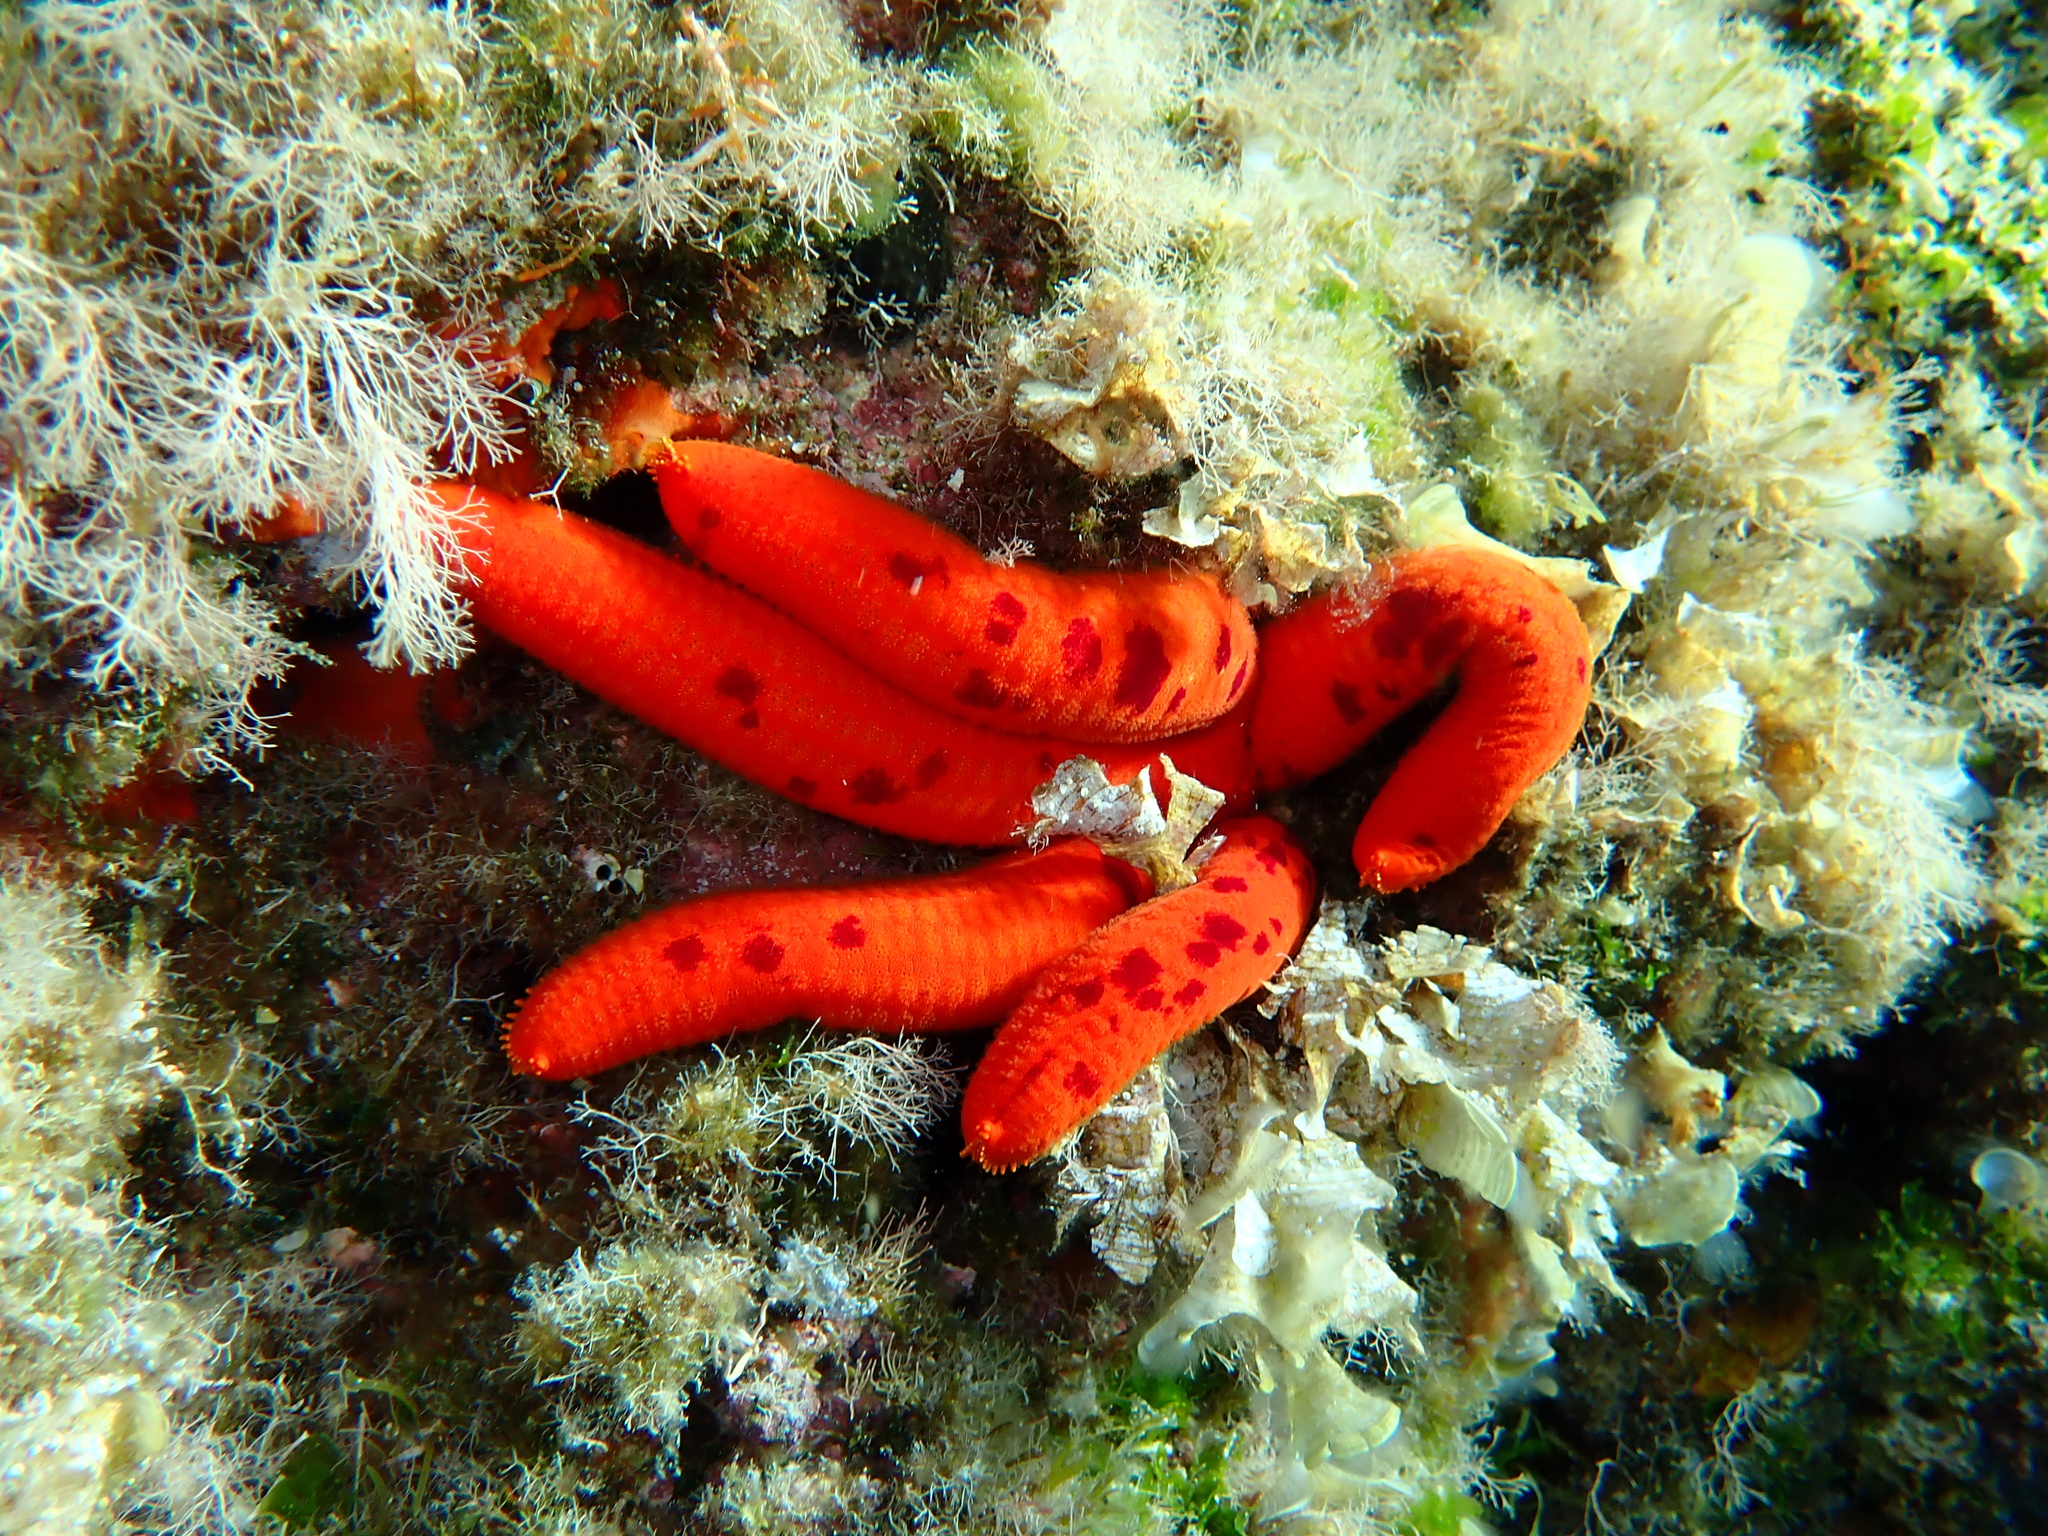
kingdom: Animalia
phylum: Echinodermata
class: Asteroidea
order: Valvatida
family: Ophidiasteridae
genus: Ophidiaster
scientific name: Ophidiaster ophidianus
